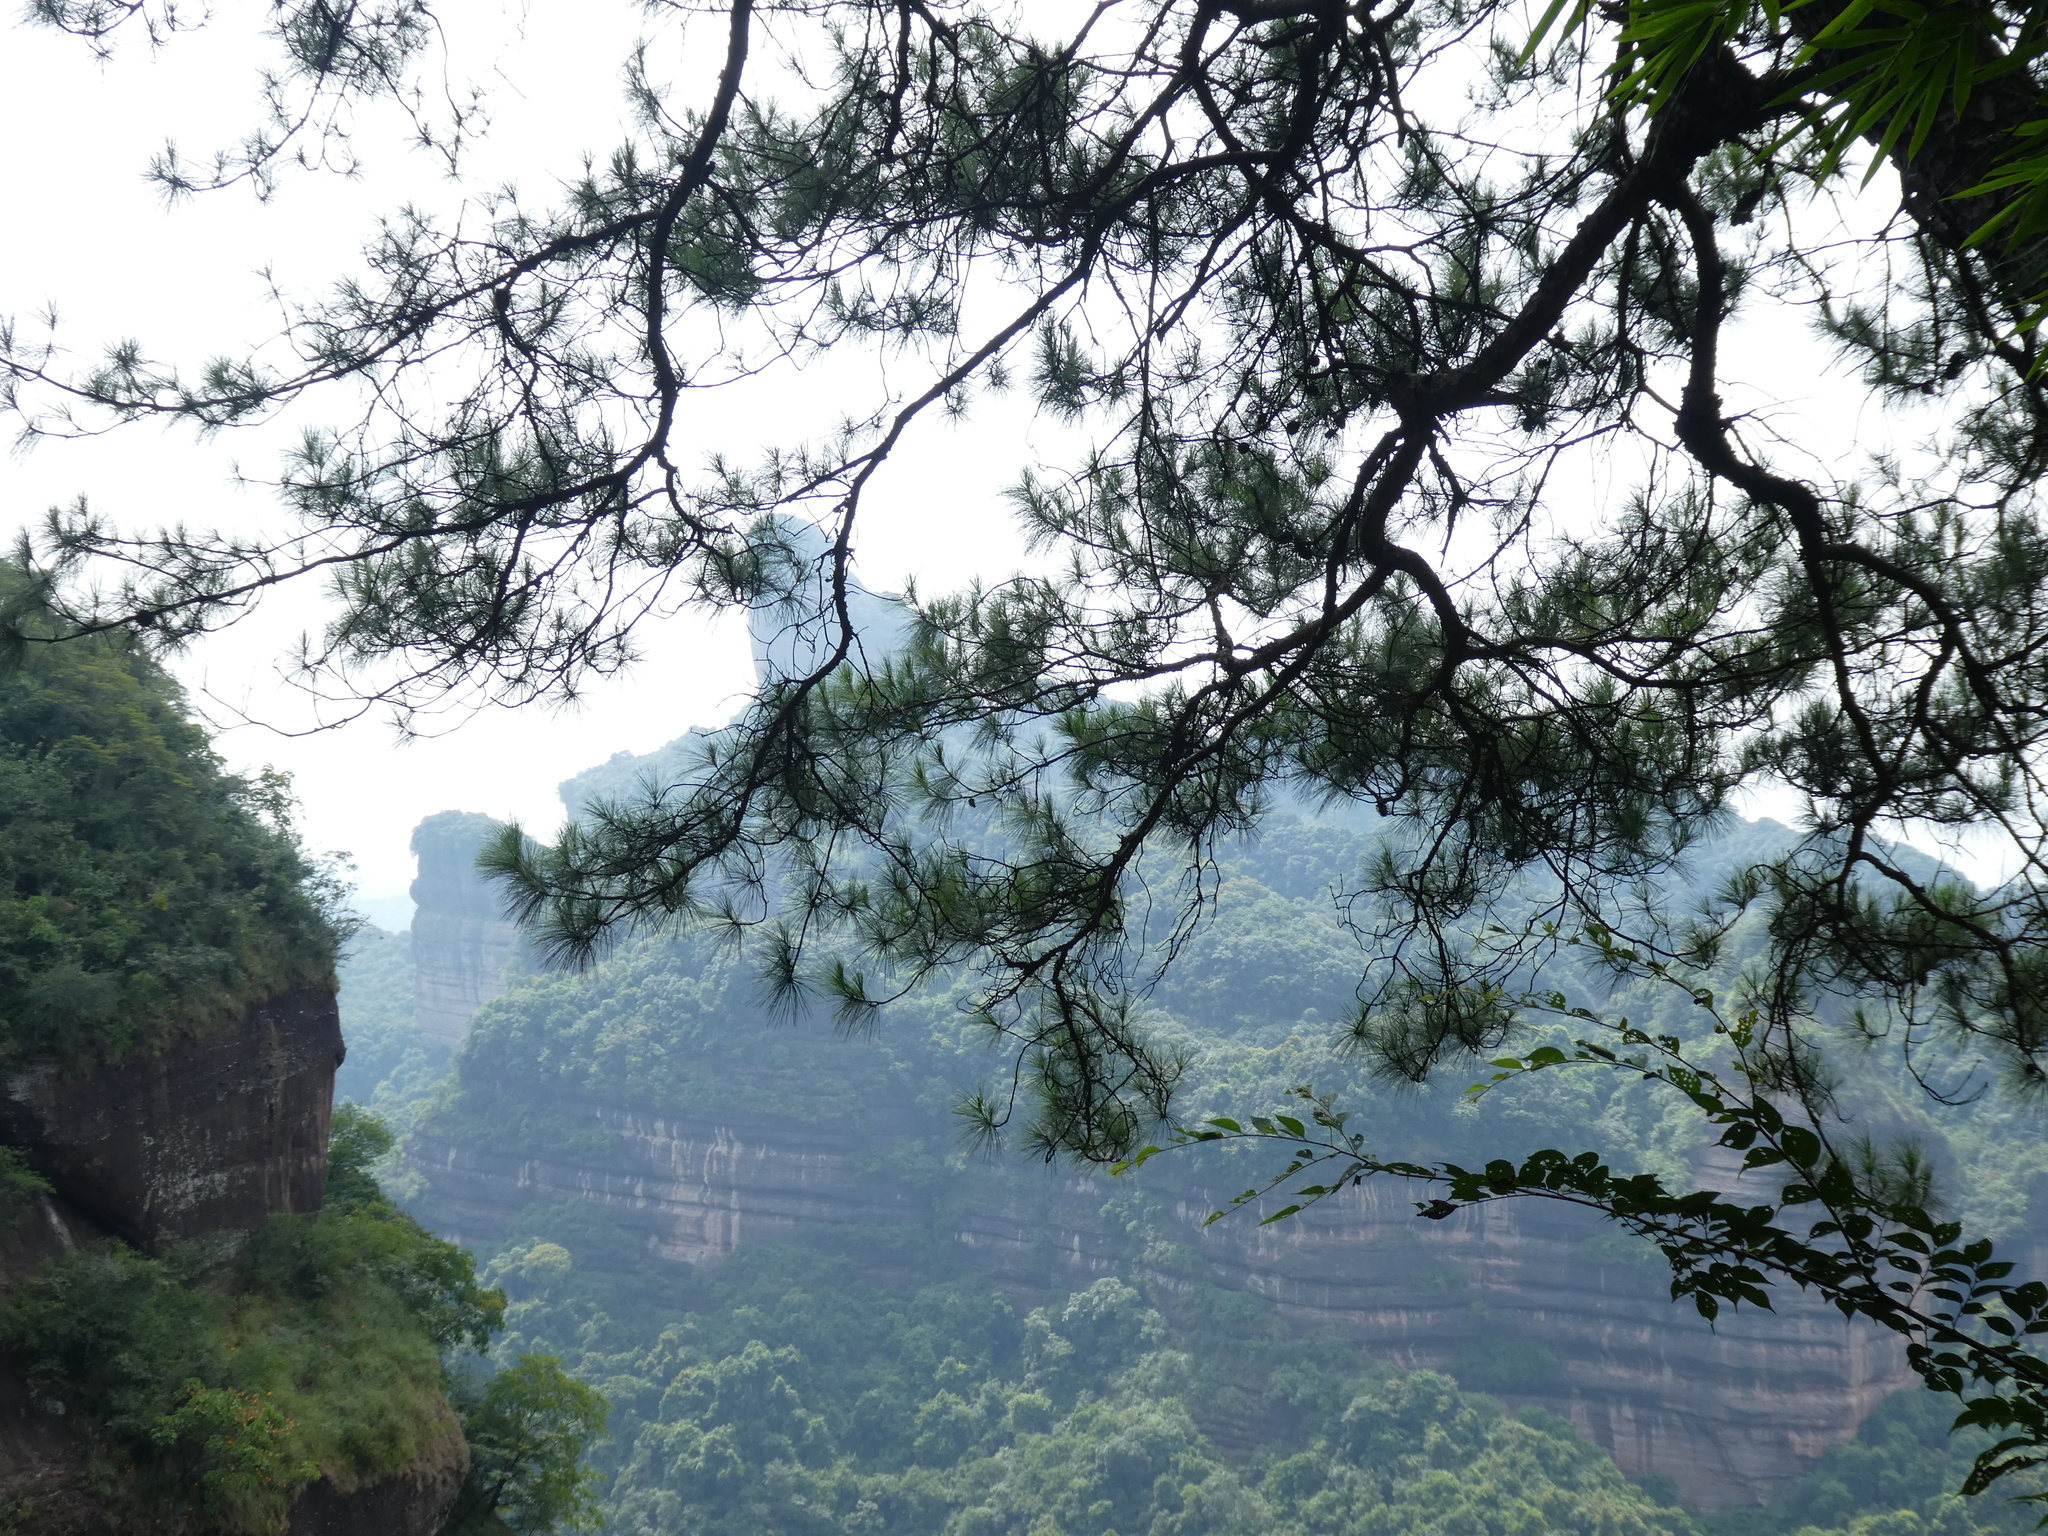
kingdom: Plantae
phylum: Tracheophyta
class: Pinopsida
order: Pinales
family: Pinaceae
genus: Pinus
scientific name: Pinus massoniana
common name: Chinese red pine
